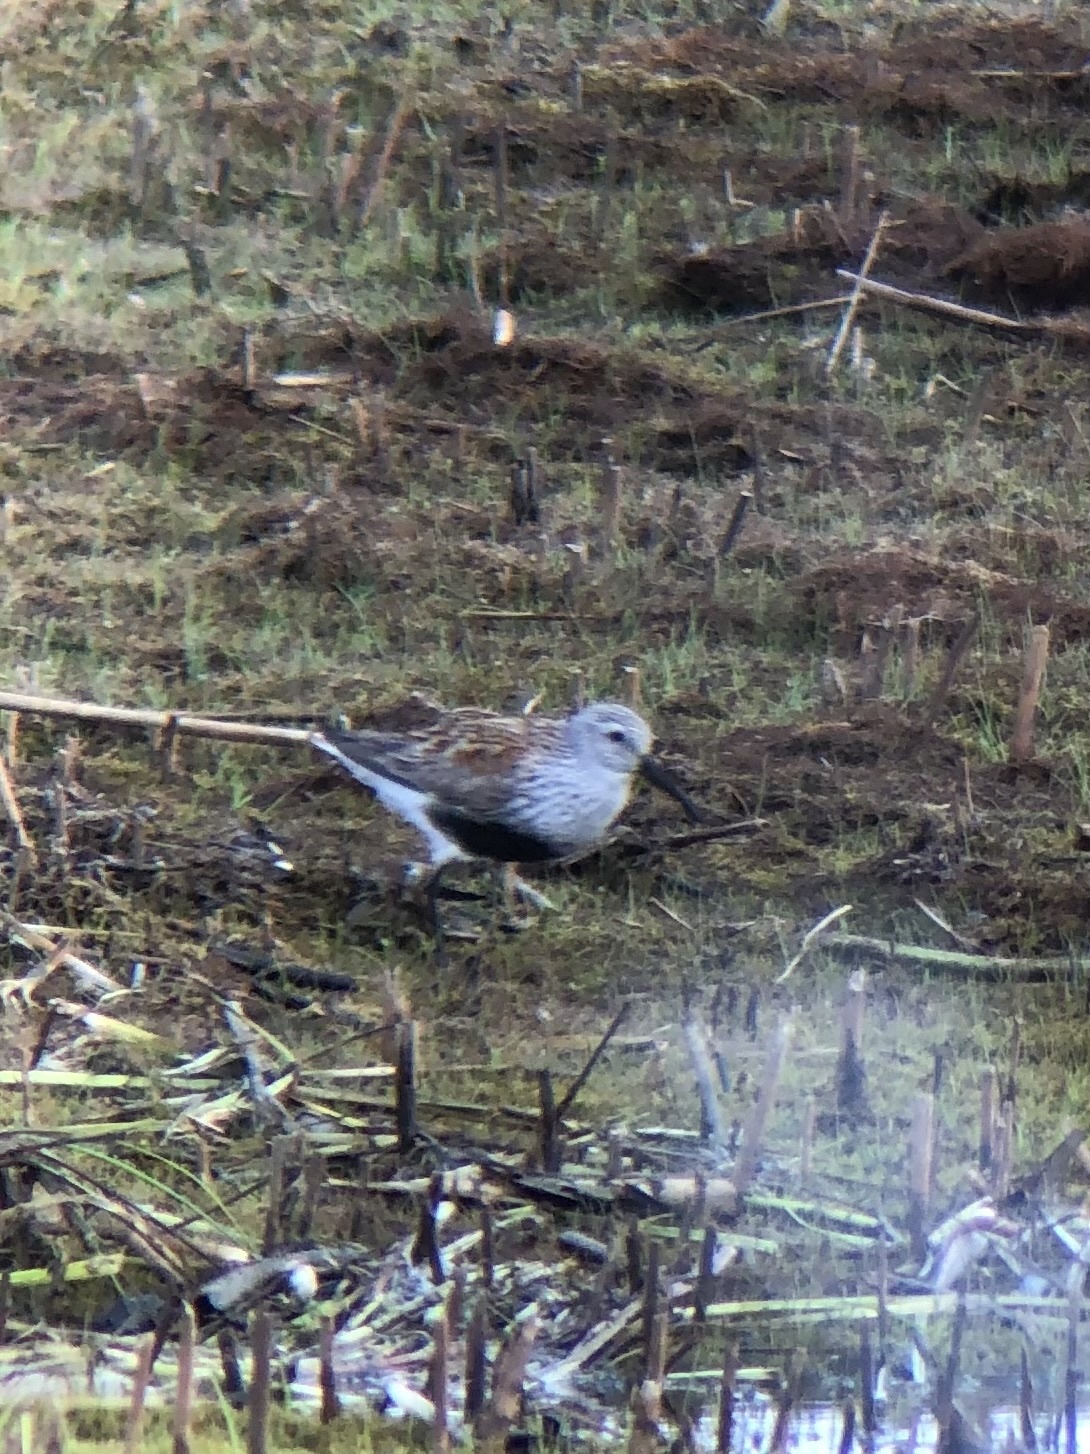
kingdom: Animalia
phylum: Chordata
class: Aves
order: Charadriiformes
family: Scolopacidae
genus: Calidris
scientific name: Calidris alpina
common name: Dunlin
